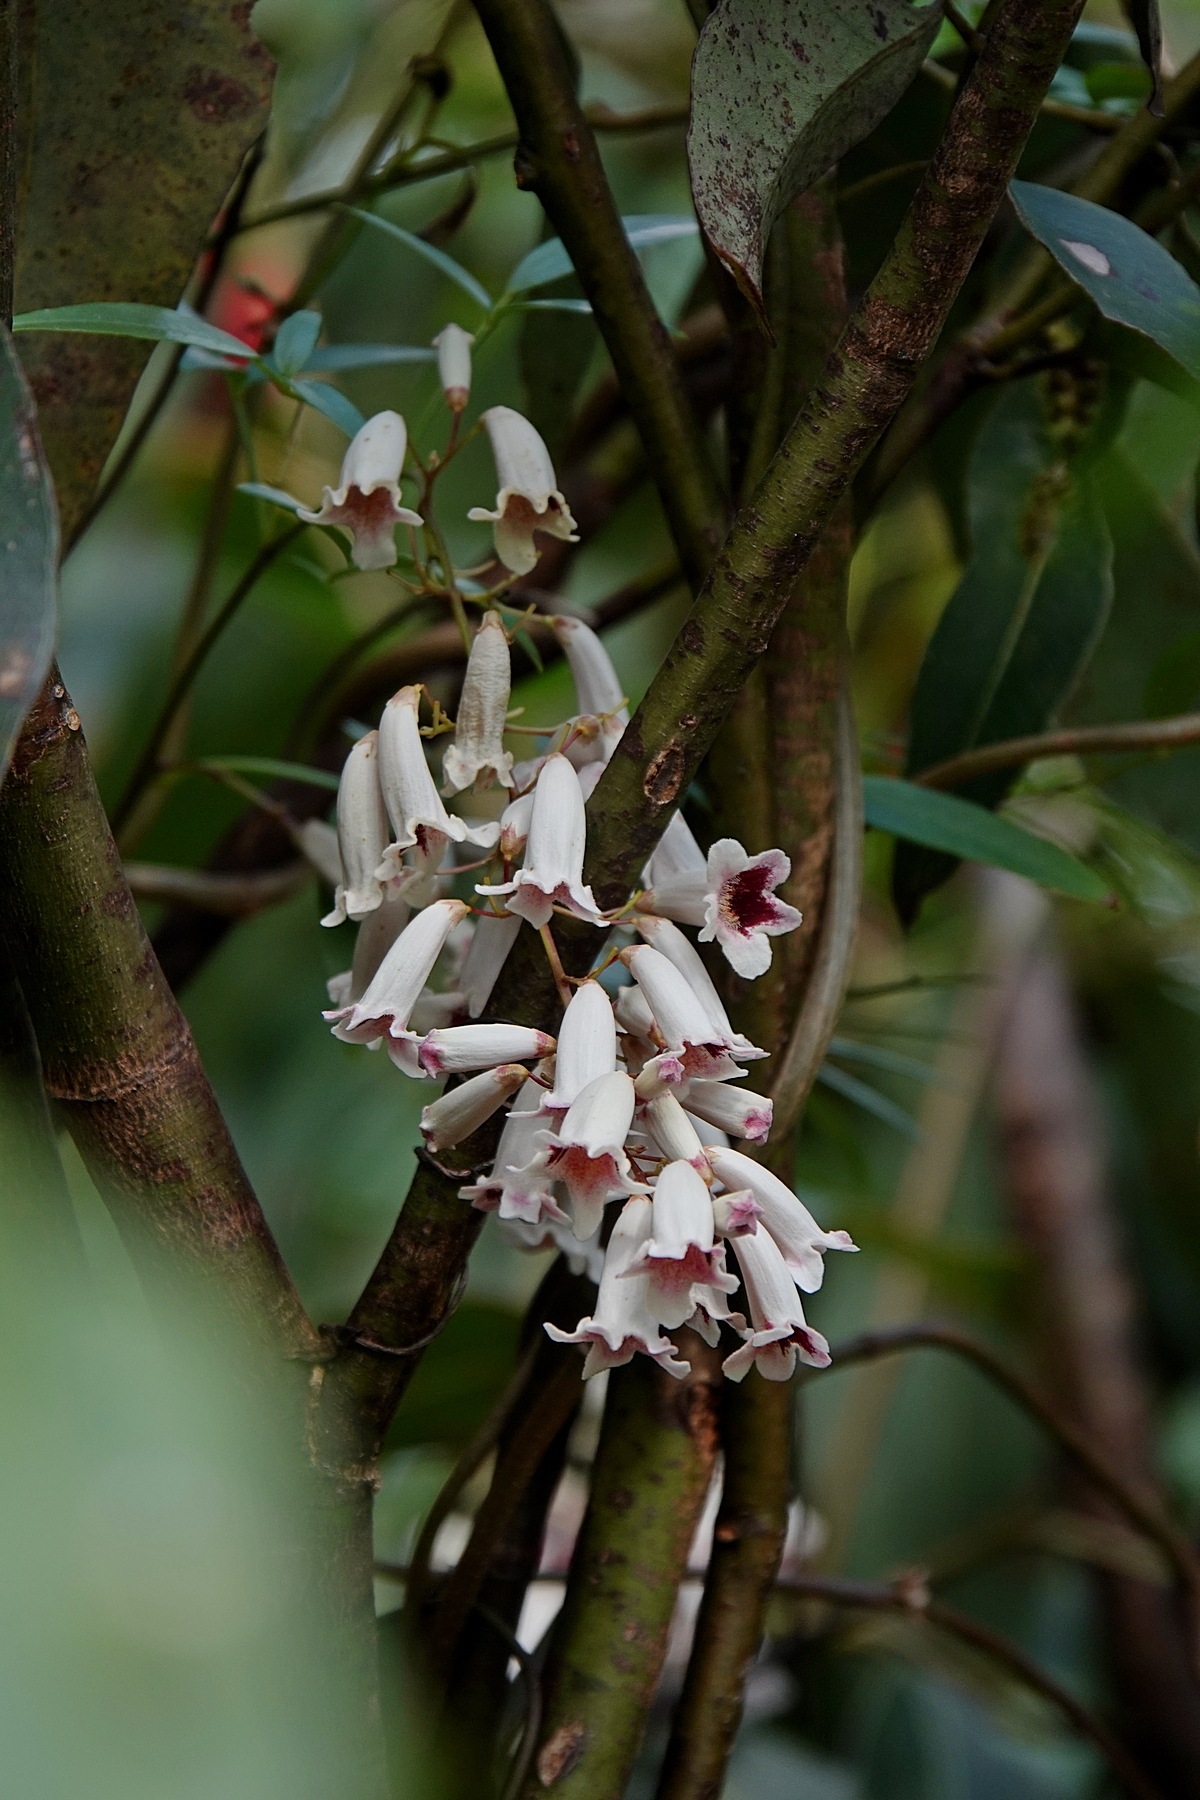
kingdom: Plantae
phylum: Tracheophyta
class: Magnoliopsida
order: Lamiales
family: Bignoniaceae
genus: Pandorea
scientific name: Pandorea pandorana
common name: Wonga-wonga-vine
